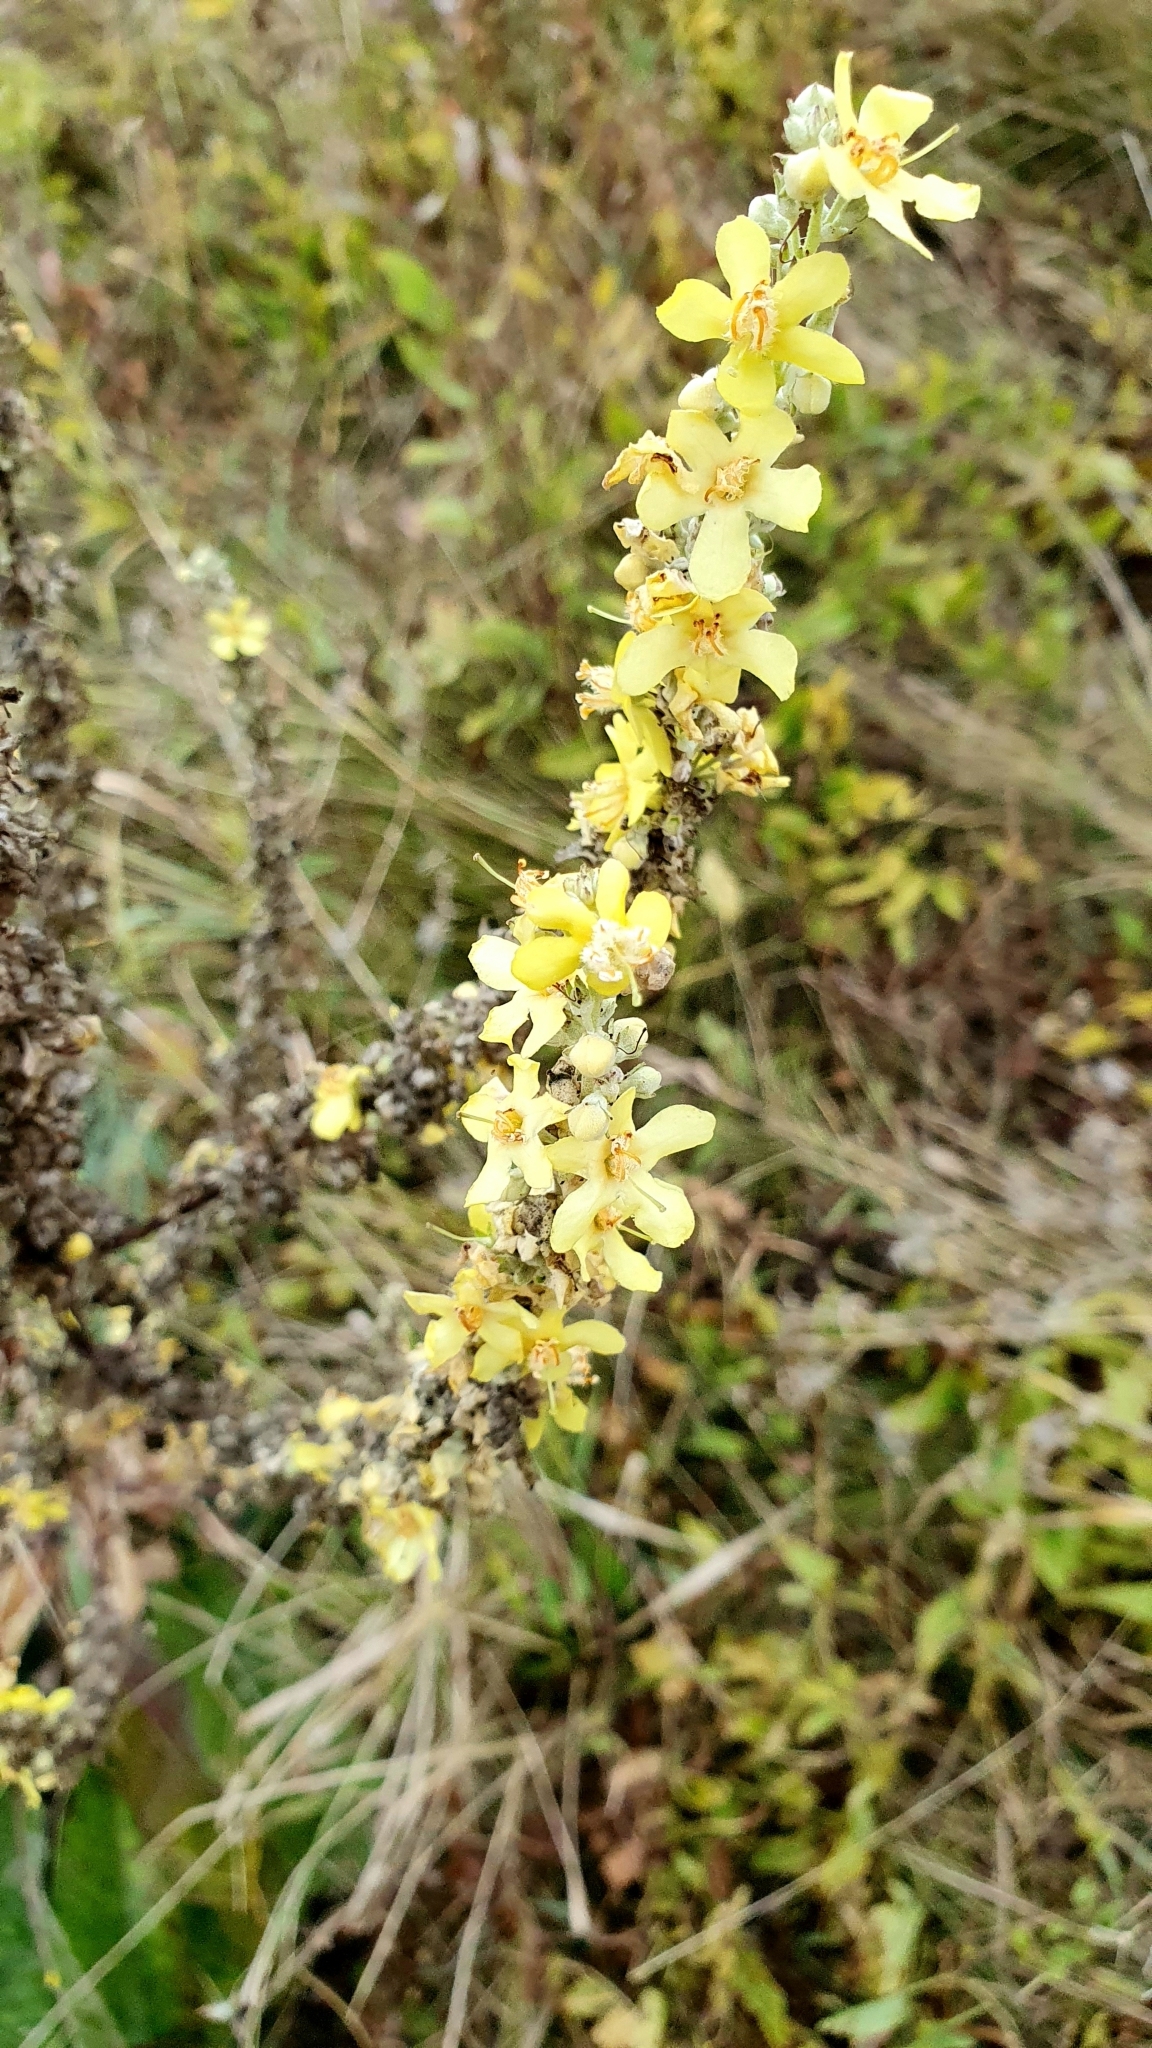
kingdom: Plantae
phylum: Tracheophyta
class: Magnoliopsida
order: Lamiales
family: Scrophulariaceae
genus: Verbascum
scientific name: Verbascum lychnitis
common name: White mullein
